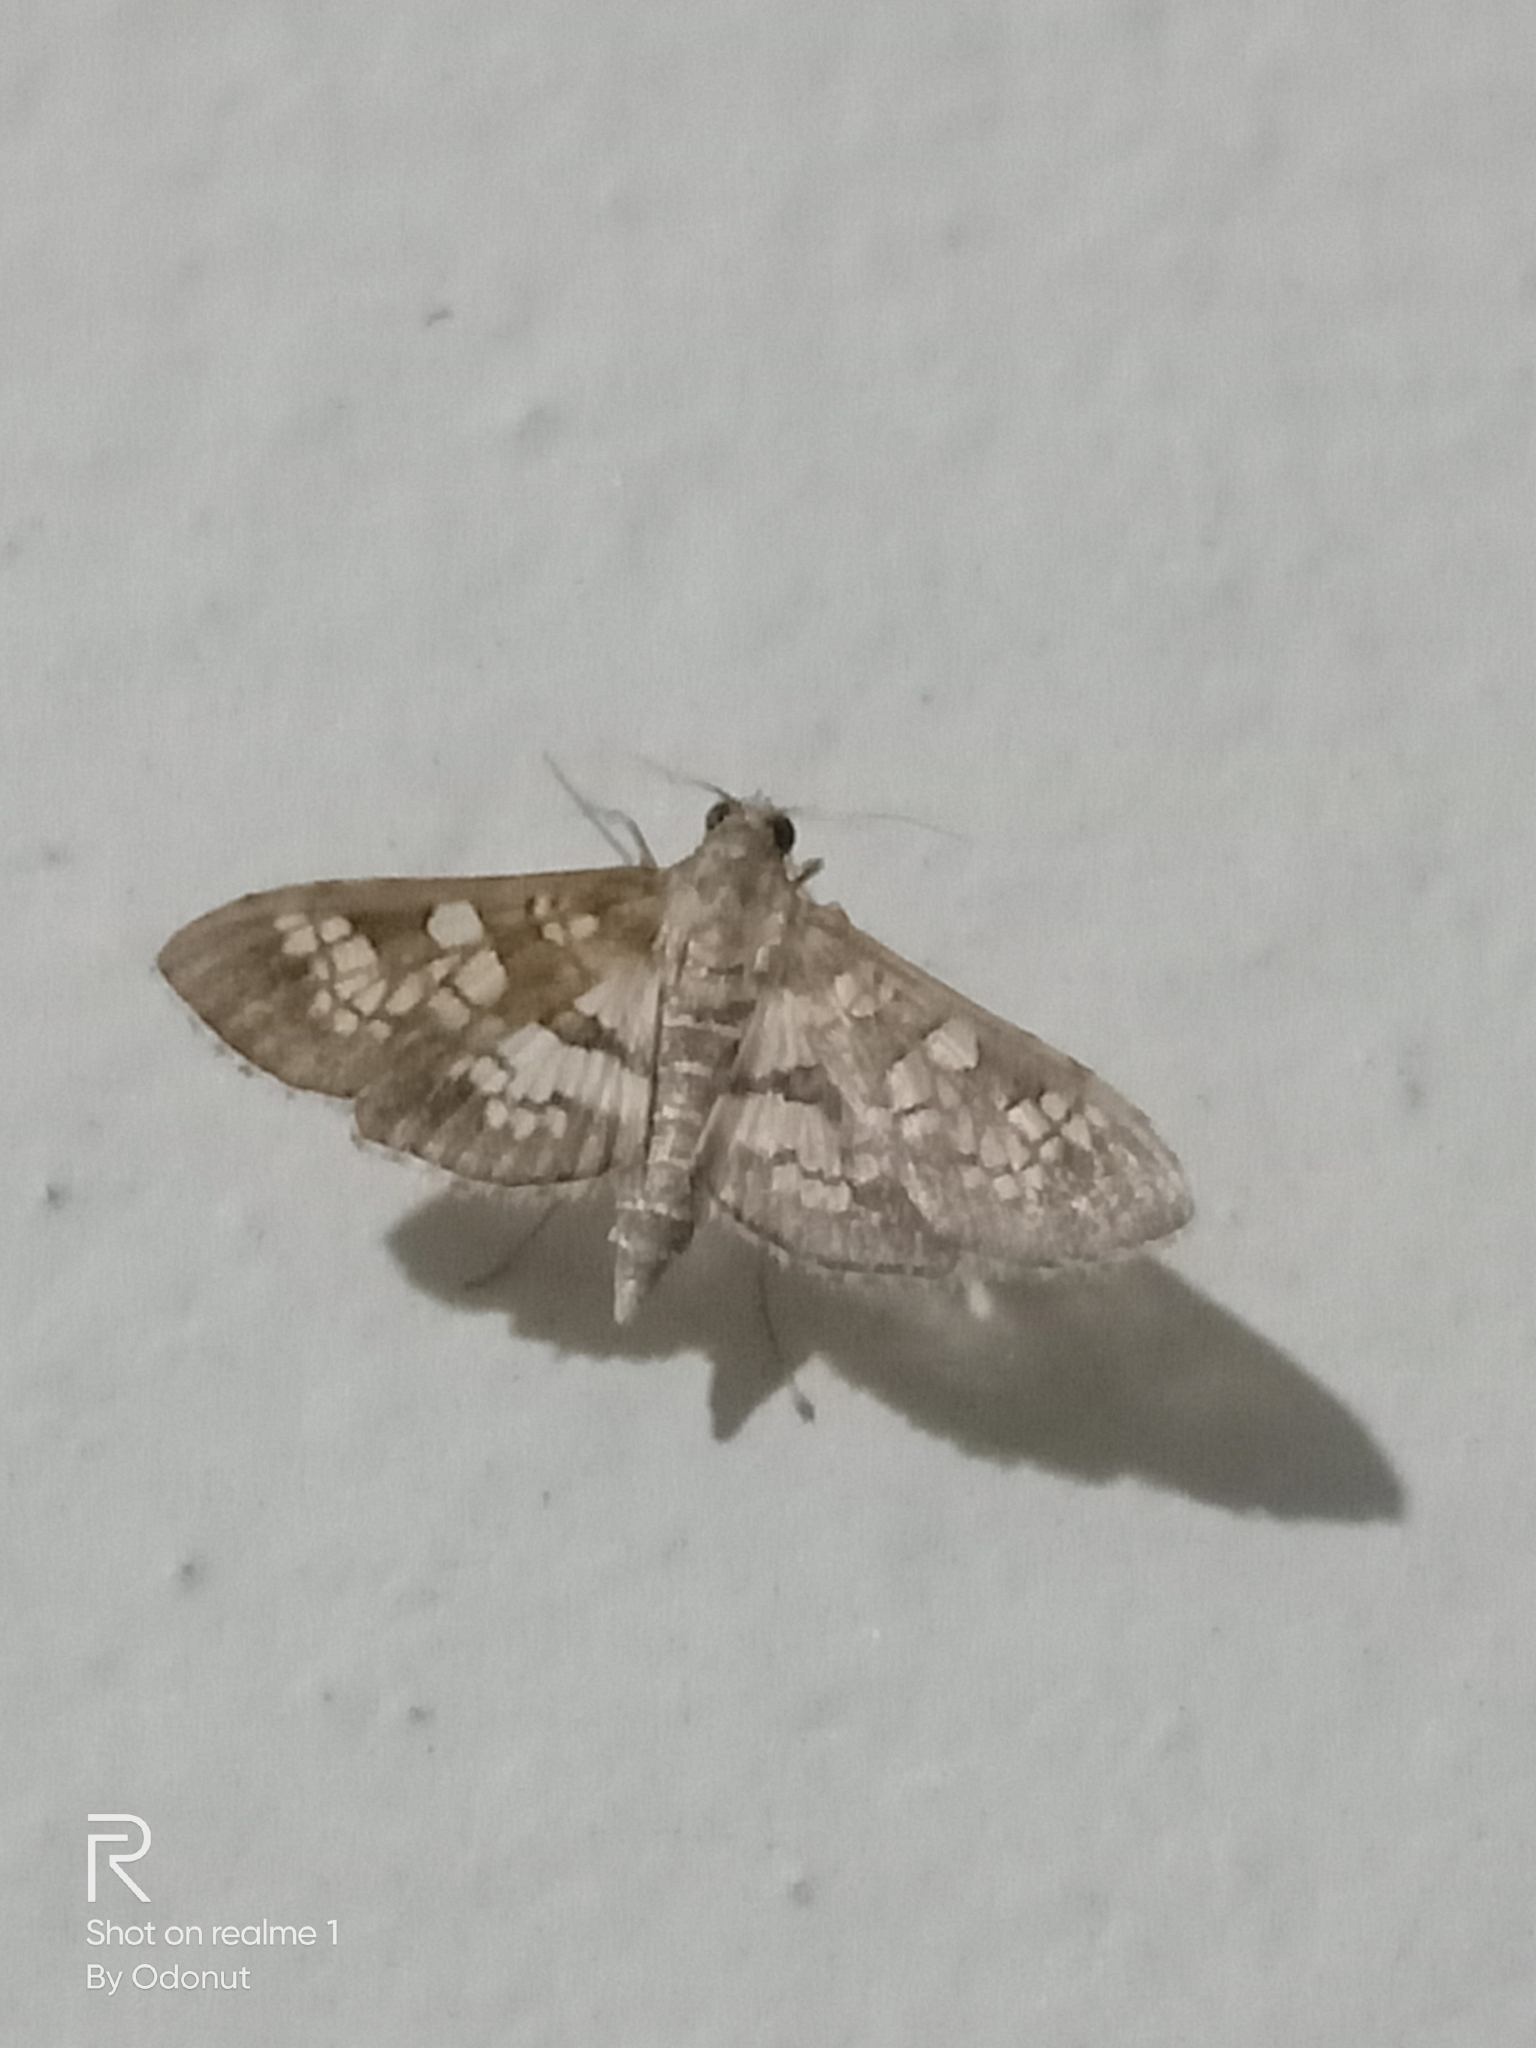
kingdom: Animalia
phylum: Arthropoda
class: Insecta
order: Lepidoptera
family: Crambidae
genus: Sameodes
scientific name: Sameodes cancellalis
